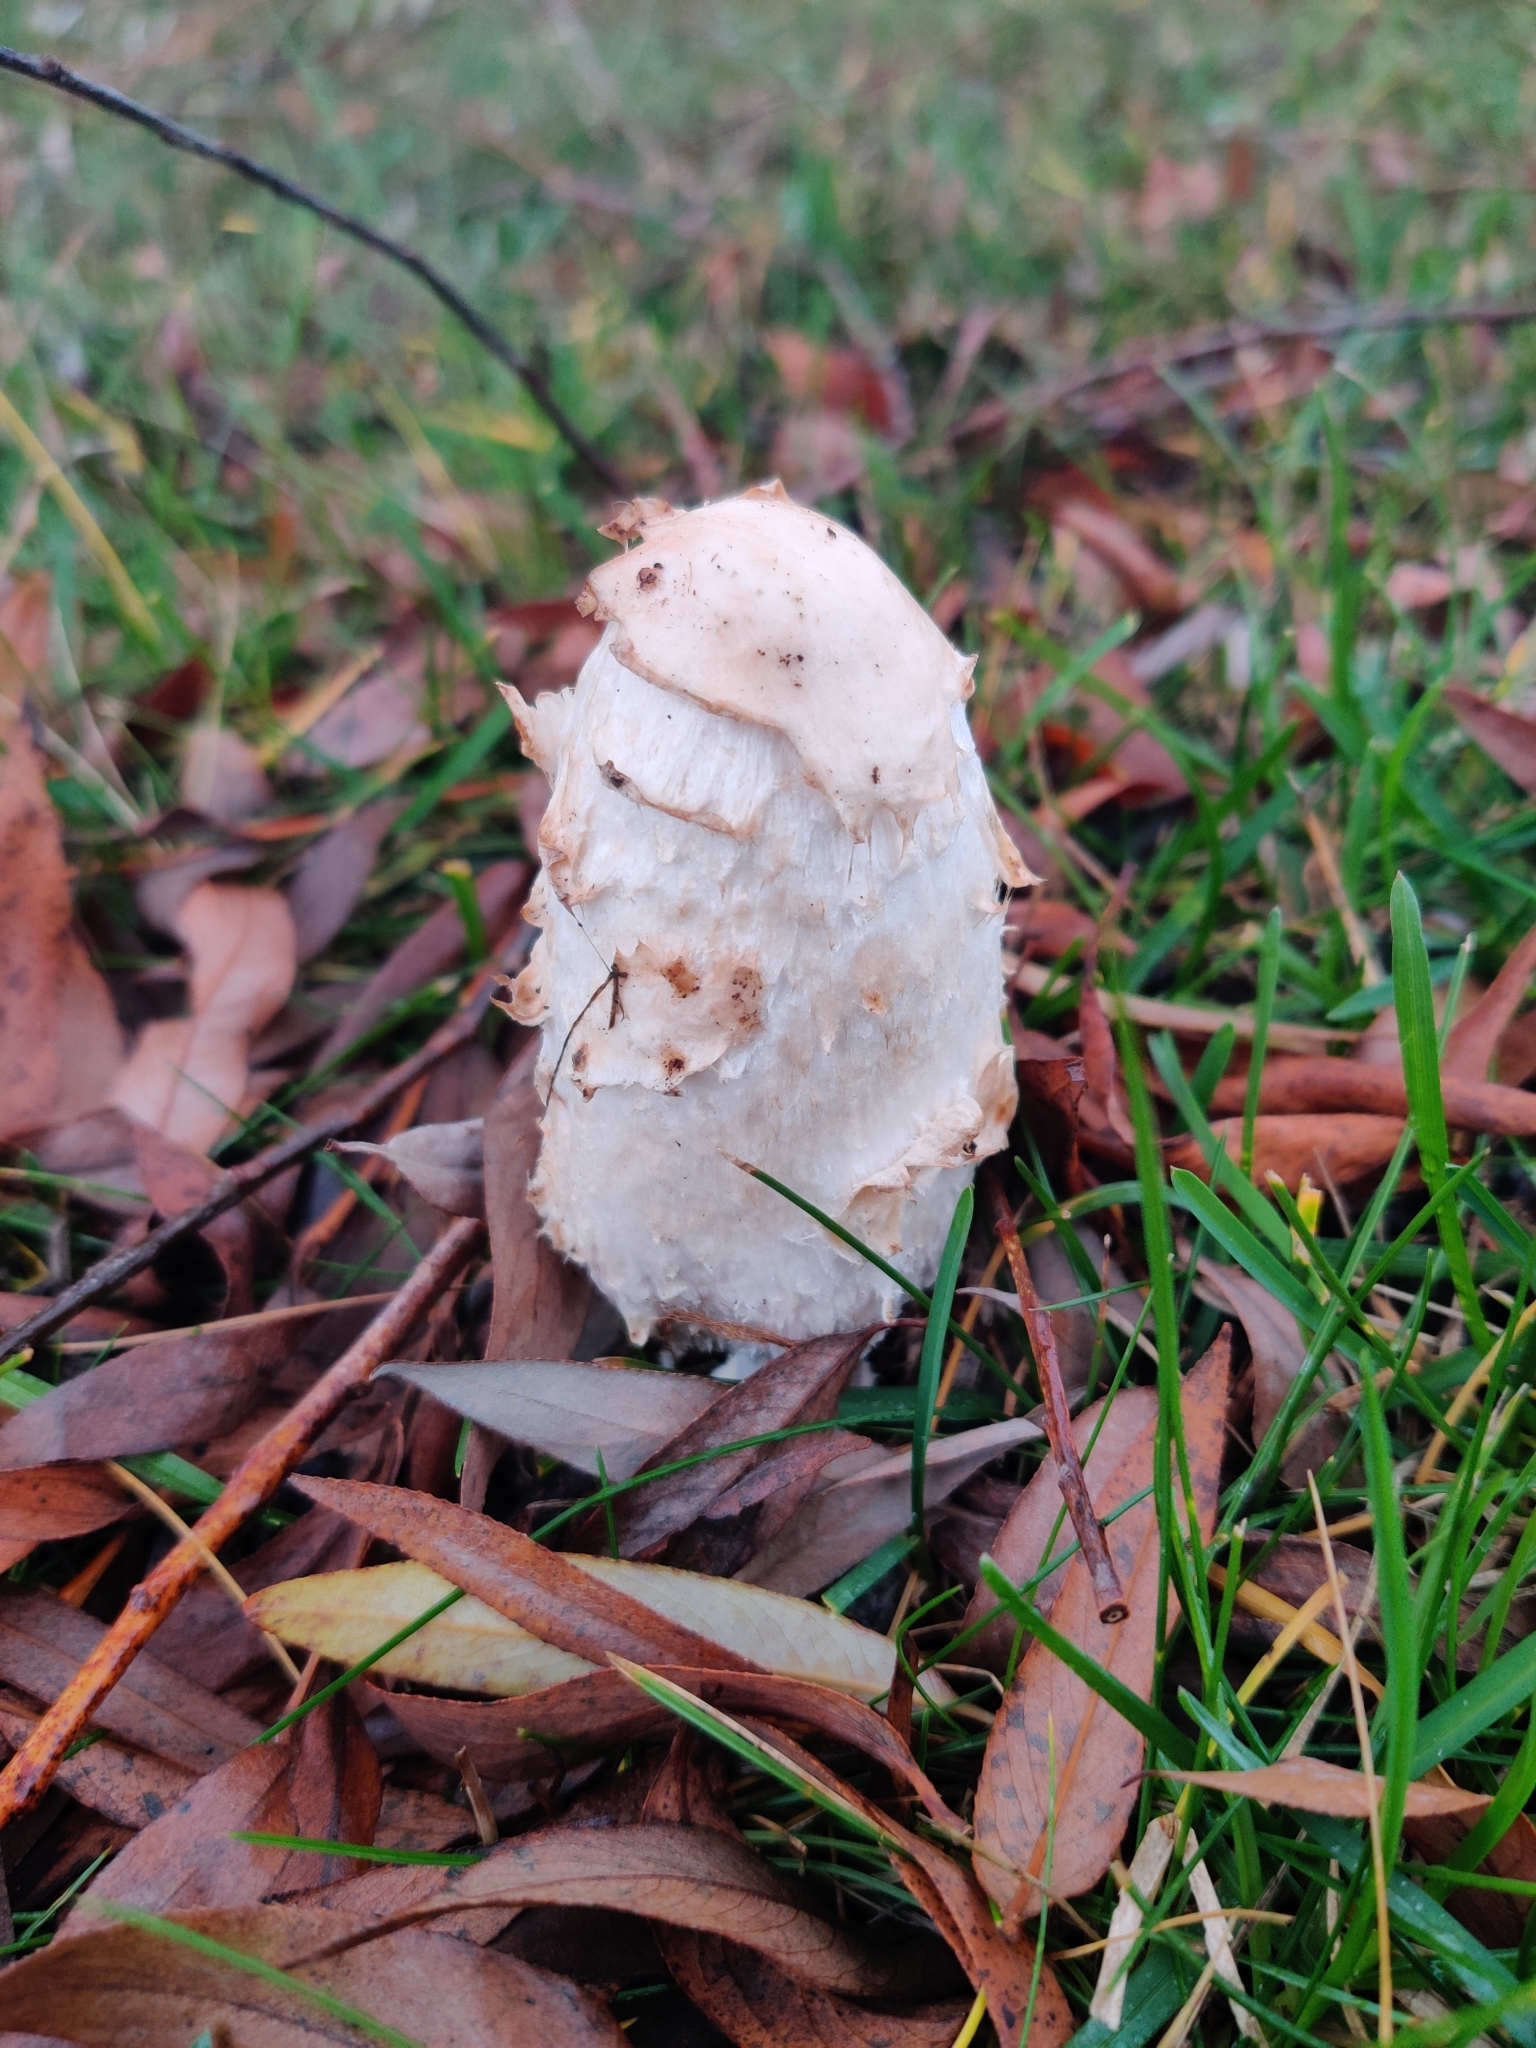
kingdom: Fungi
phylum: Basidiomycota
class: Agaricomycetes
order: Agaricales
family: Agaricaceae
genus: Coprinus
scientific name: Coprinus comatus
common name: Lawyer's wig
